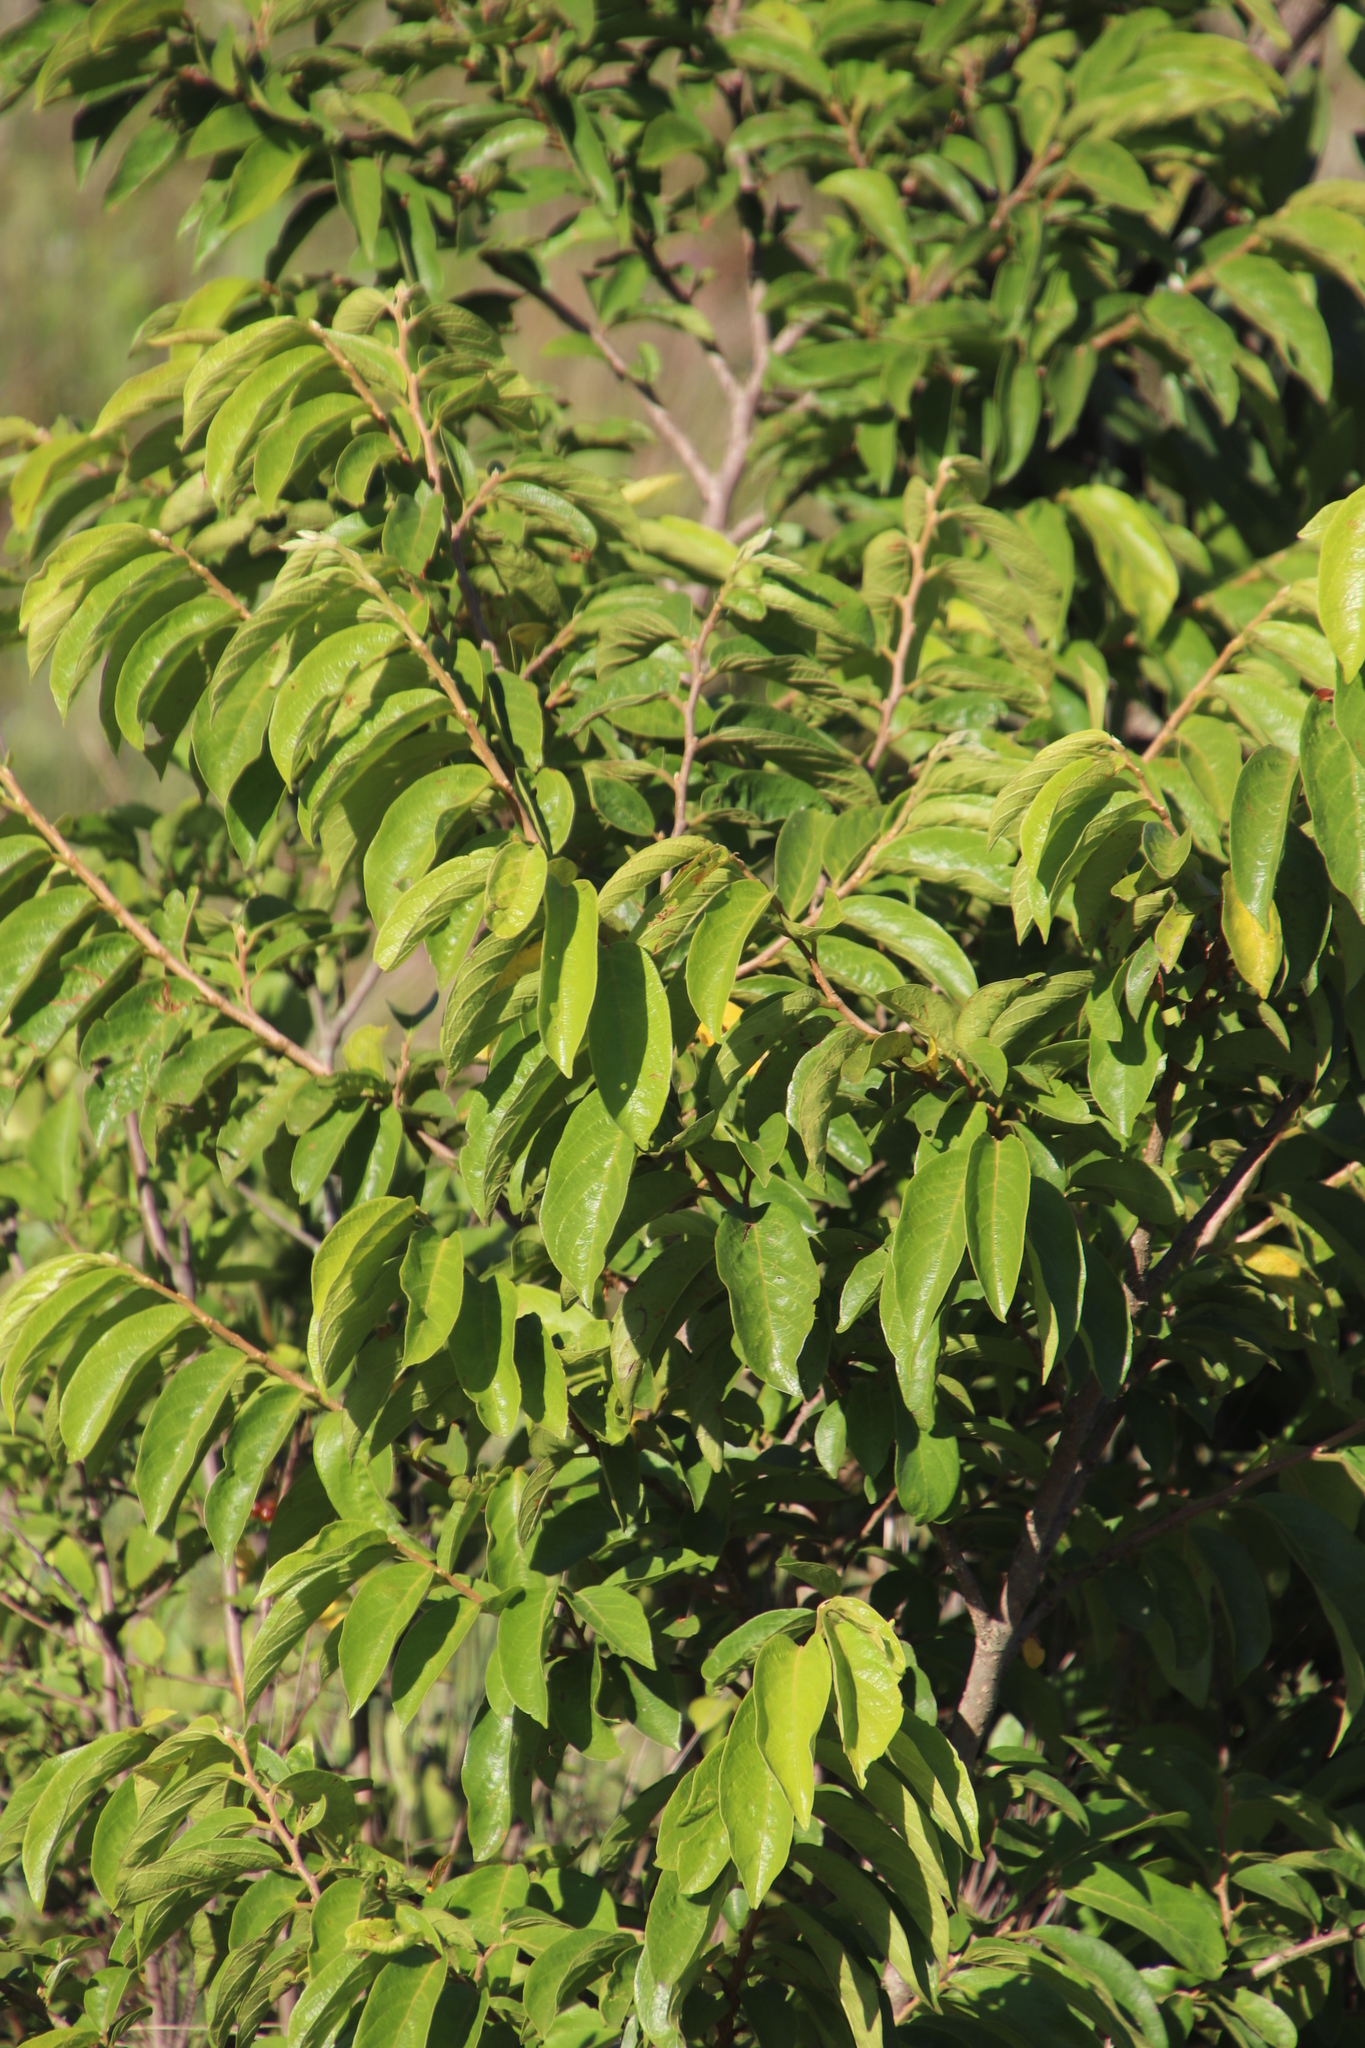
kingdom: Plantae
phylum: Tracheophyta
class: Magnoliopsida
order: Malpighiales
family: Phyllanthaceae
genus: Antidesma
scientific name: Antidesma venosum
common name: Tassel-berry
